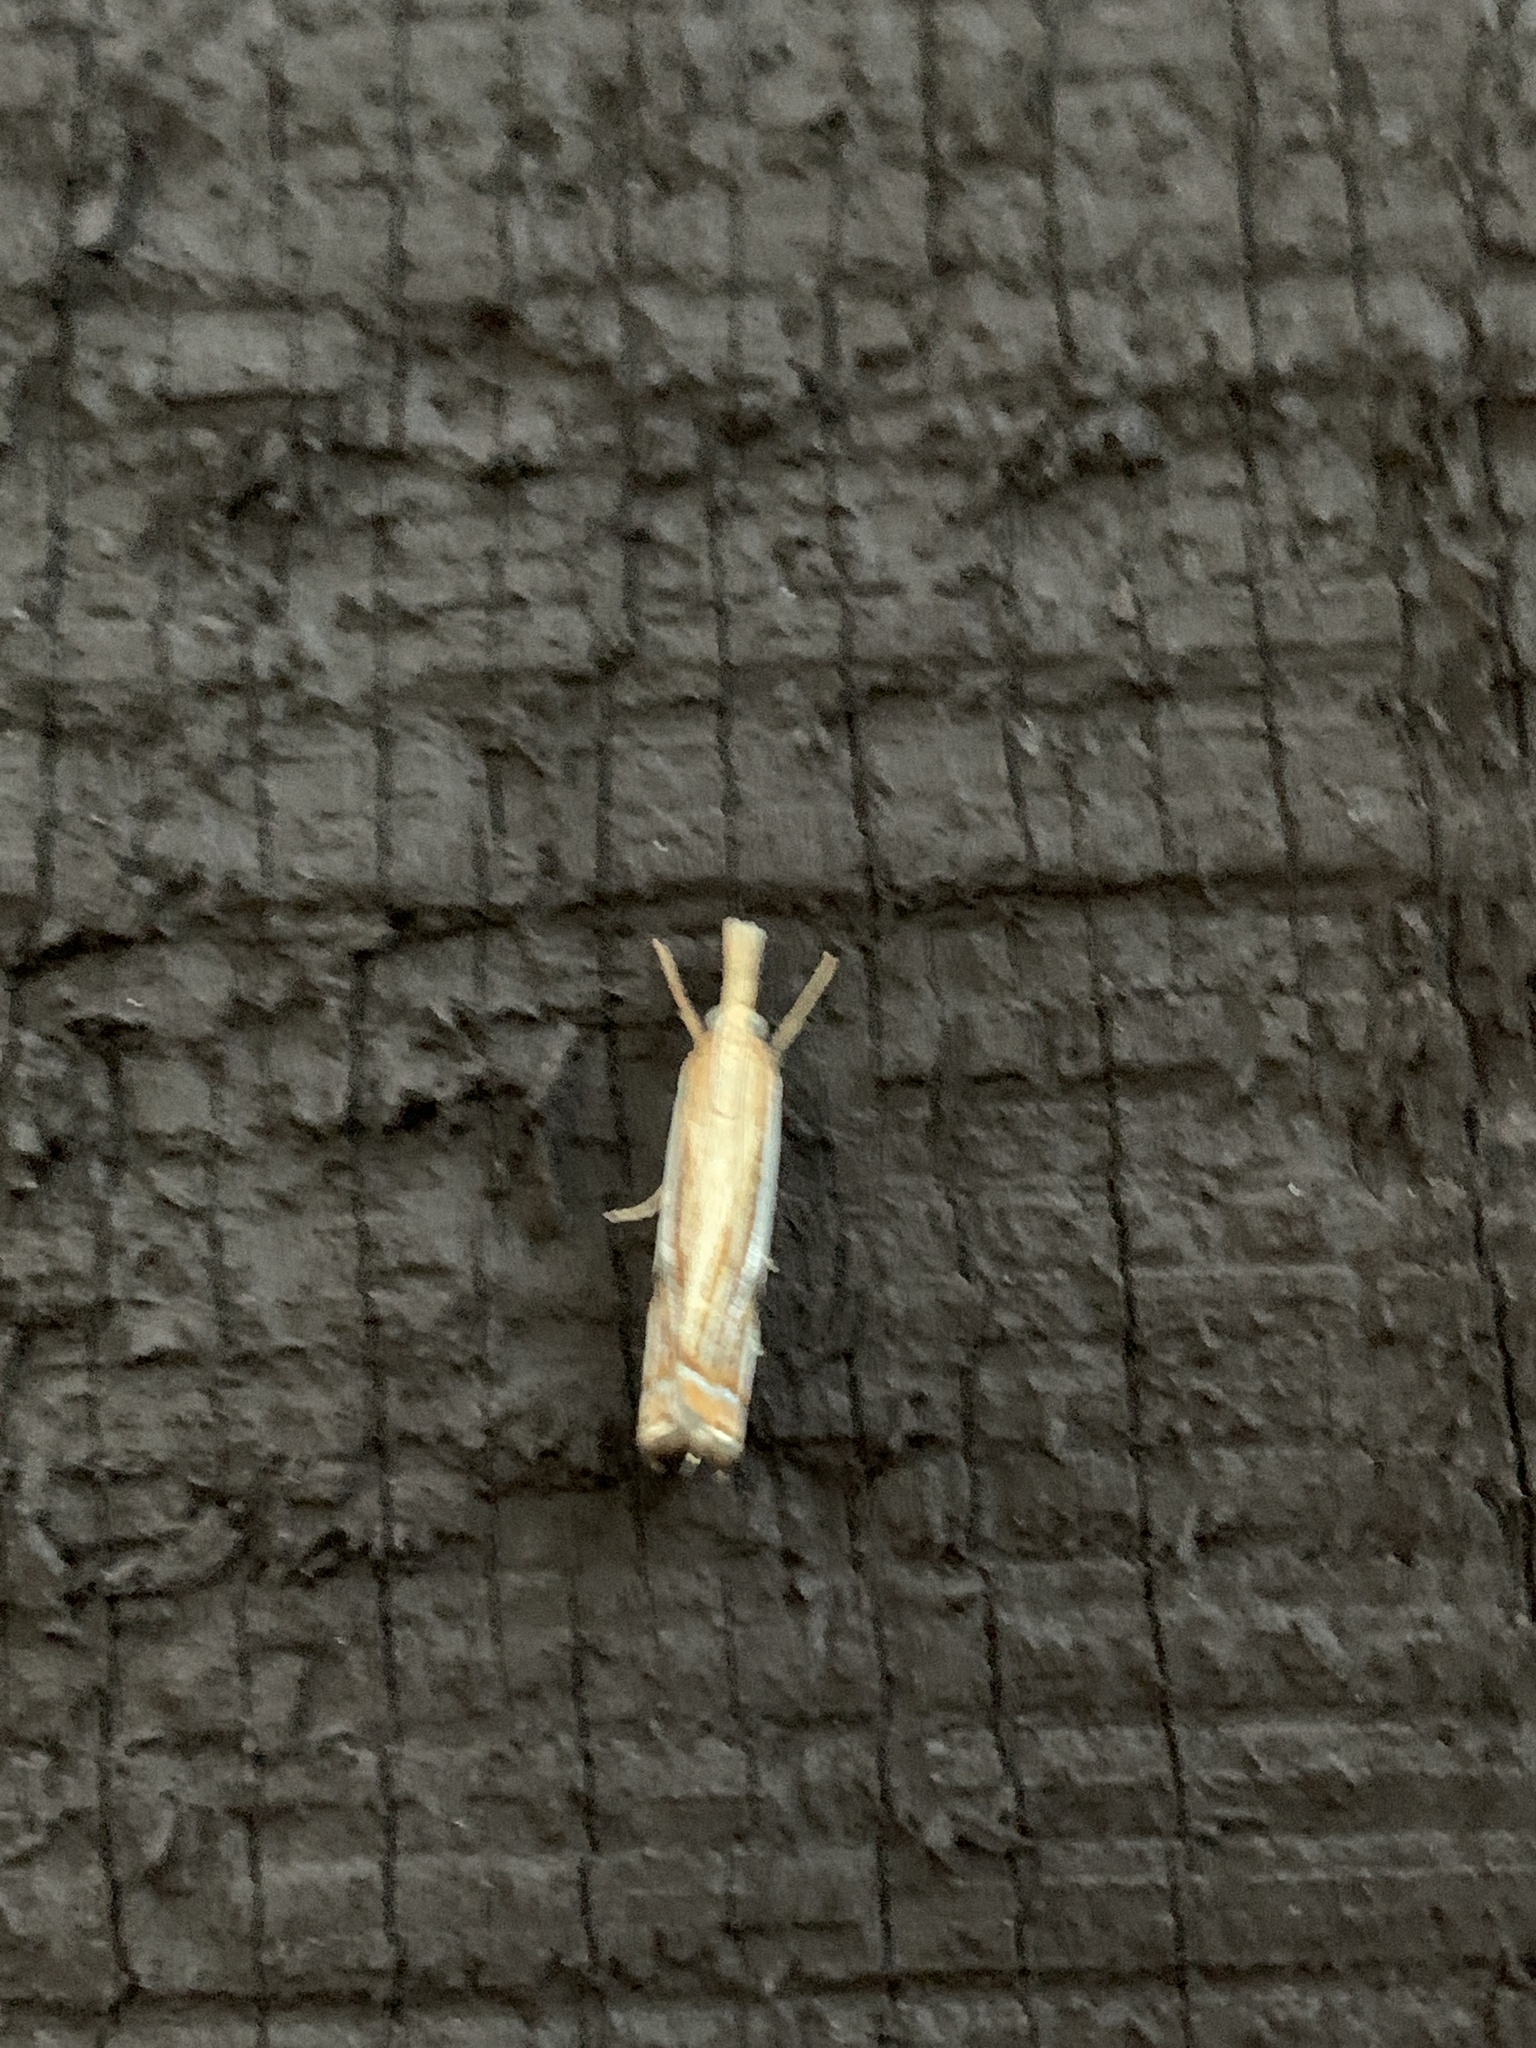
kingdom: Animalia
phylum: Arthropoda
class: Insecta
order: Lepidoptera
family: Crambidae
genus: Crambus
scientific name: Crambus agitatellus
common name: Double-banded grass-veneer
